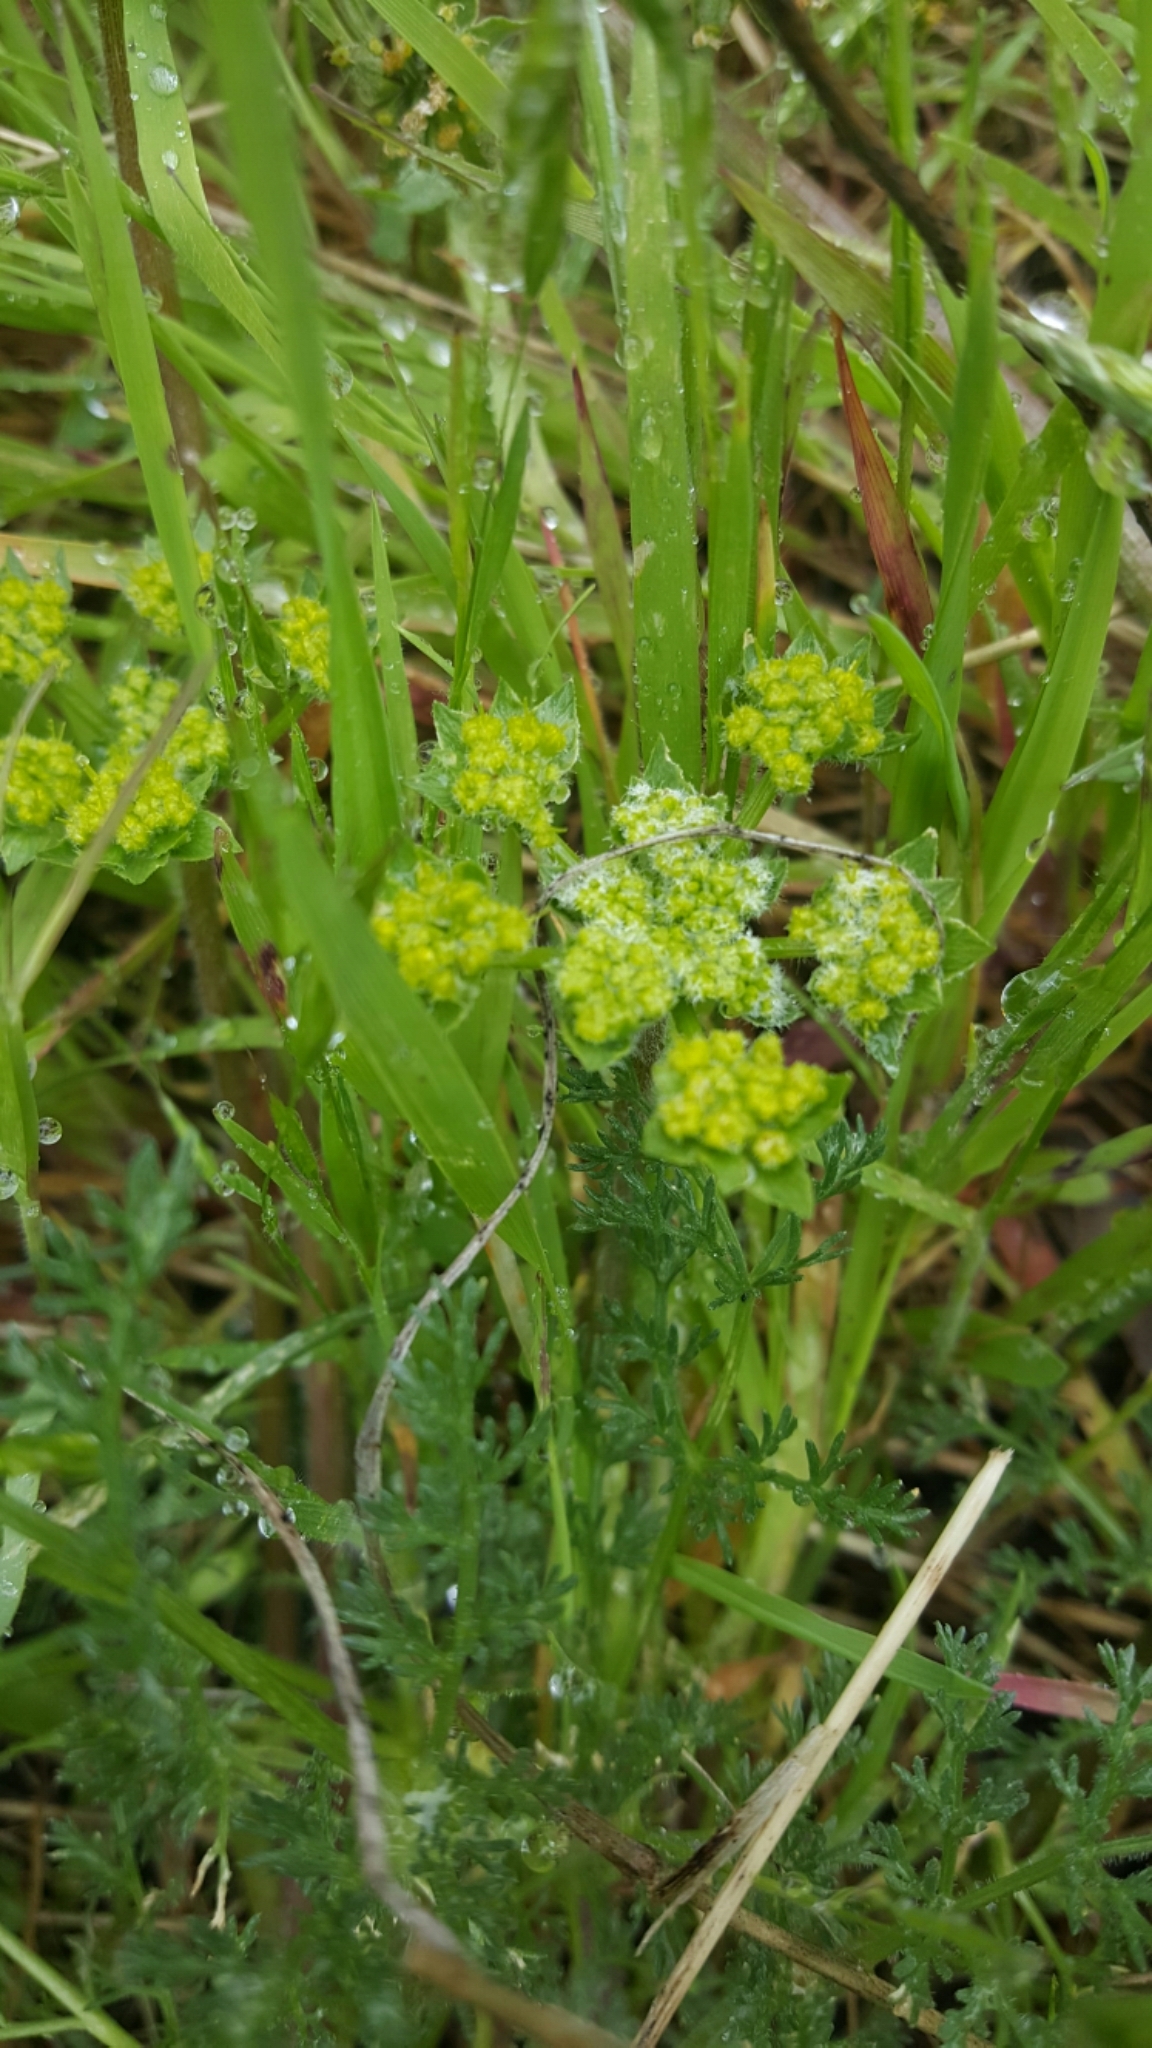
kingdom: Plantae
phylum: Tracheophyta
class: Magnoliopsida
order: Apiales
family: Apiaceae
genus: Lomatium
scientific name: Lomatium dasycarpum
